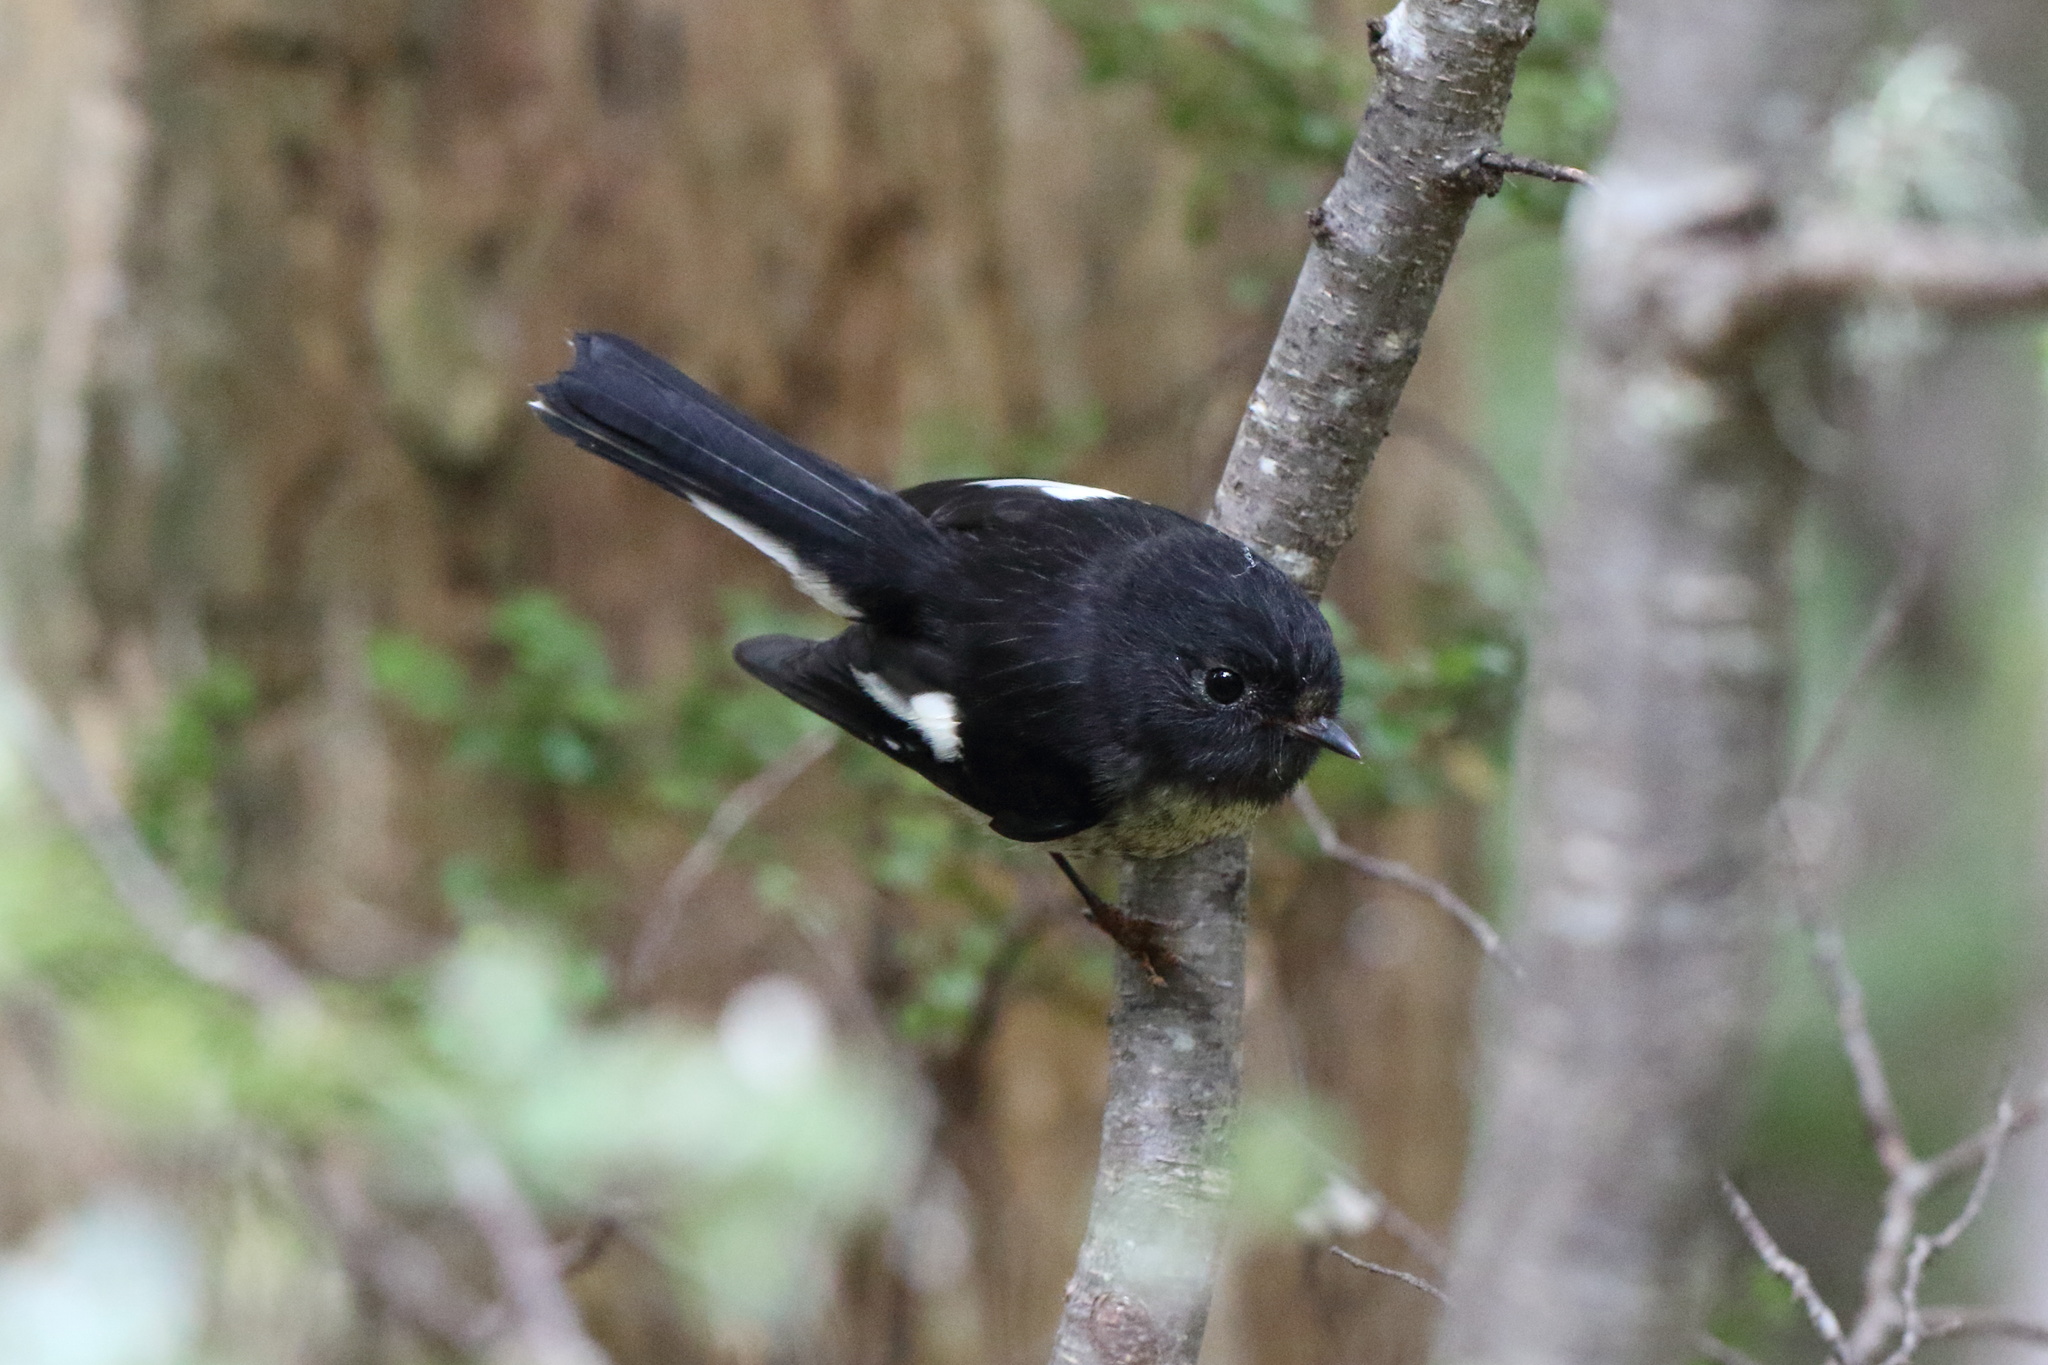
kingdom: Animalia
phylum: Chordata
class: Aves
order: Passeriformes
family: Petroicidae
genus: Petroica
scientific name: Petroica macrocephala
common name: Tomtit
